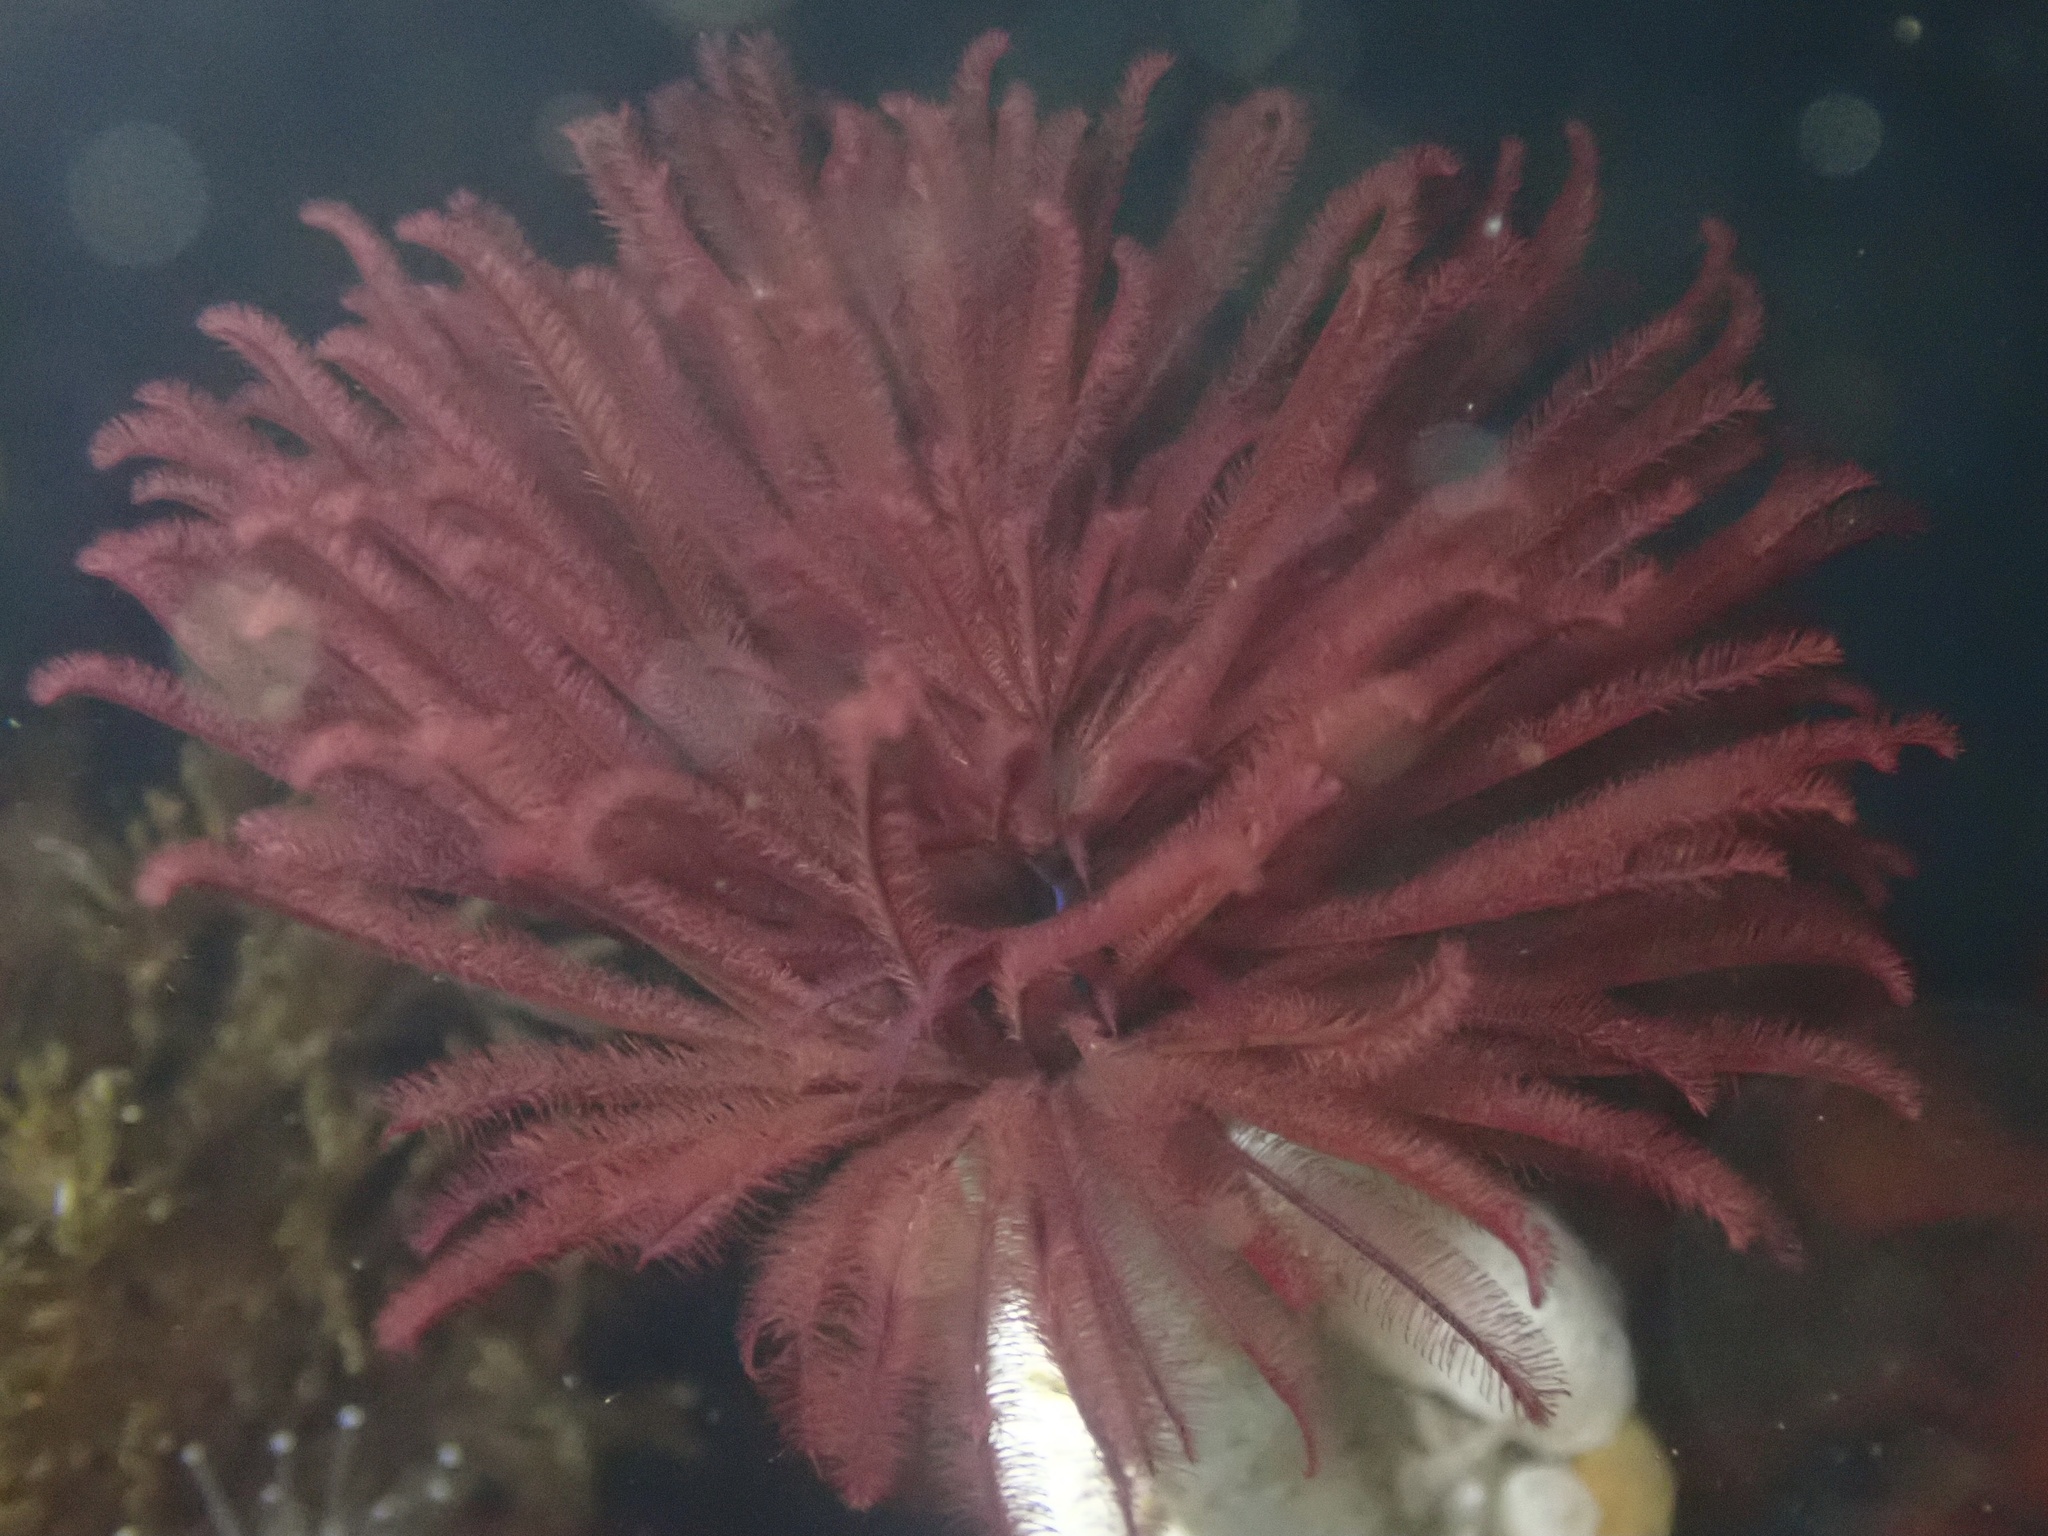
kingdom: Animalia
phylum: Annelida
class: Polychaeta
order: Sabellida
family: Sabellidae
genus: Eudistylia
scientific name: Eudistylia polymorpha
